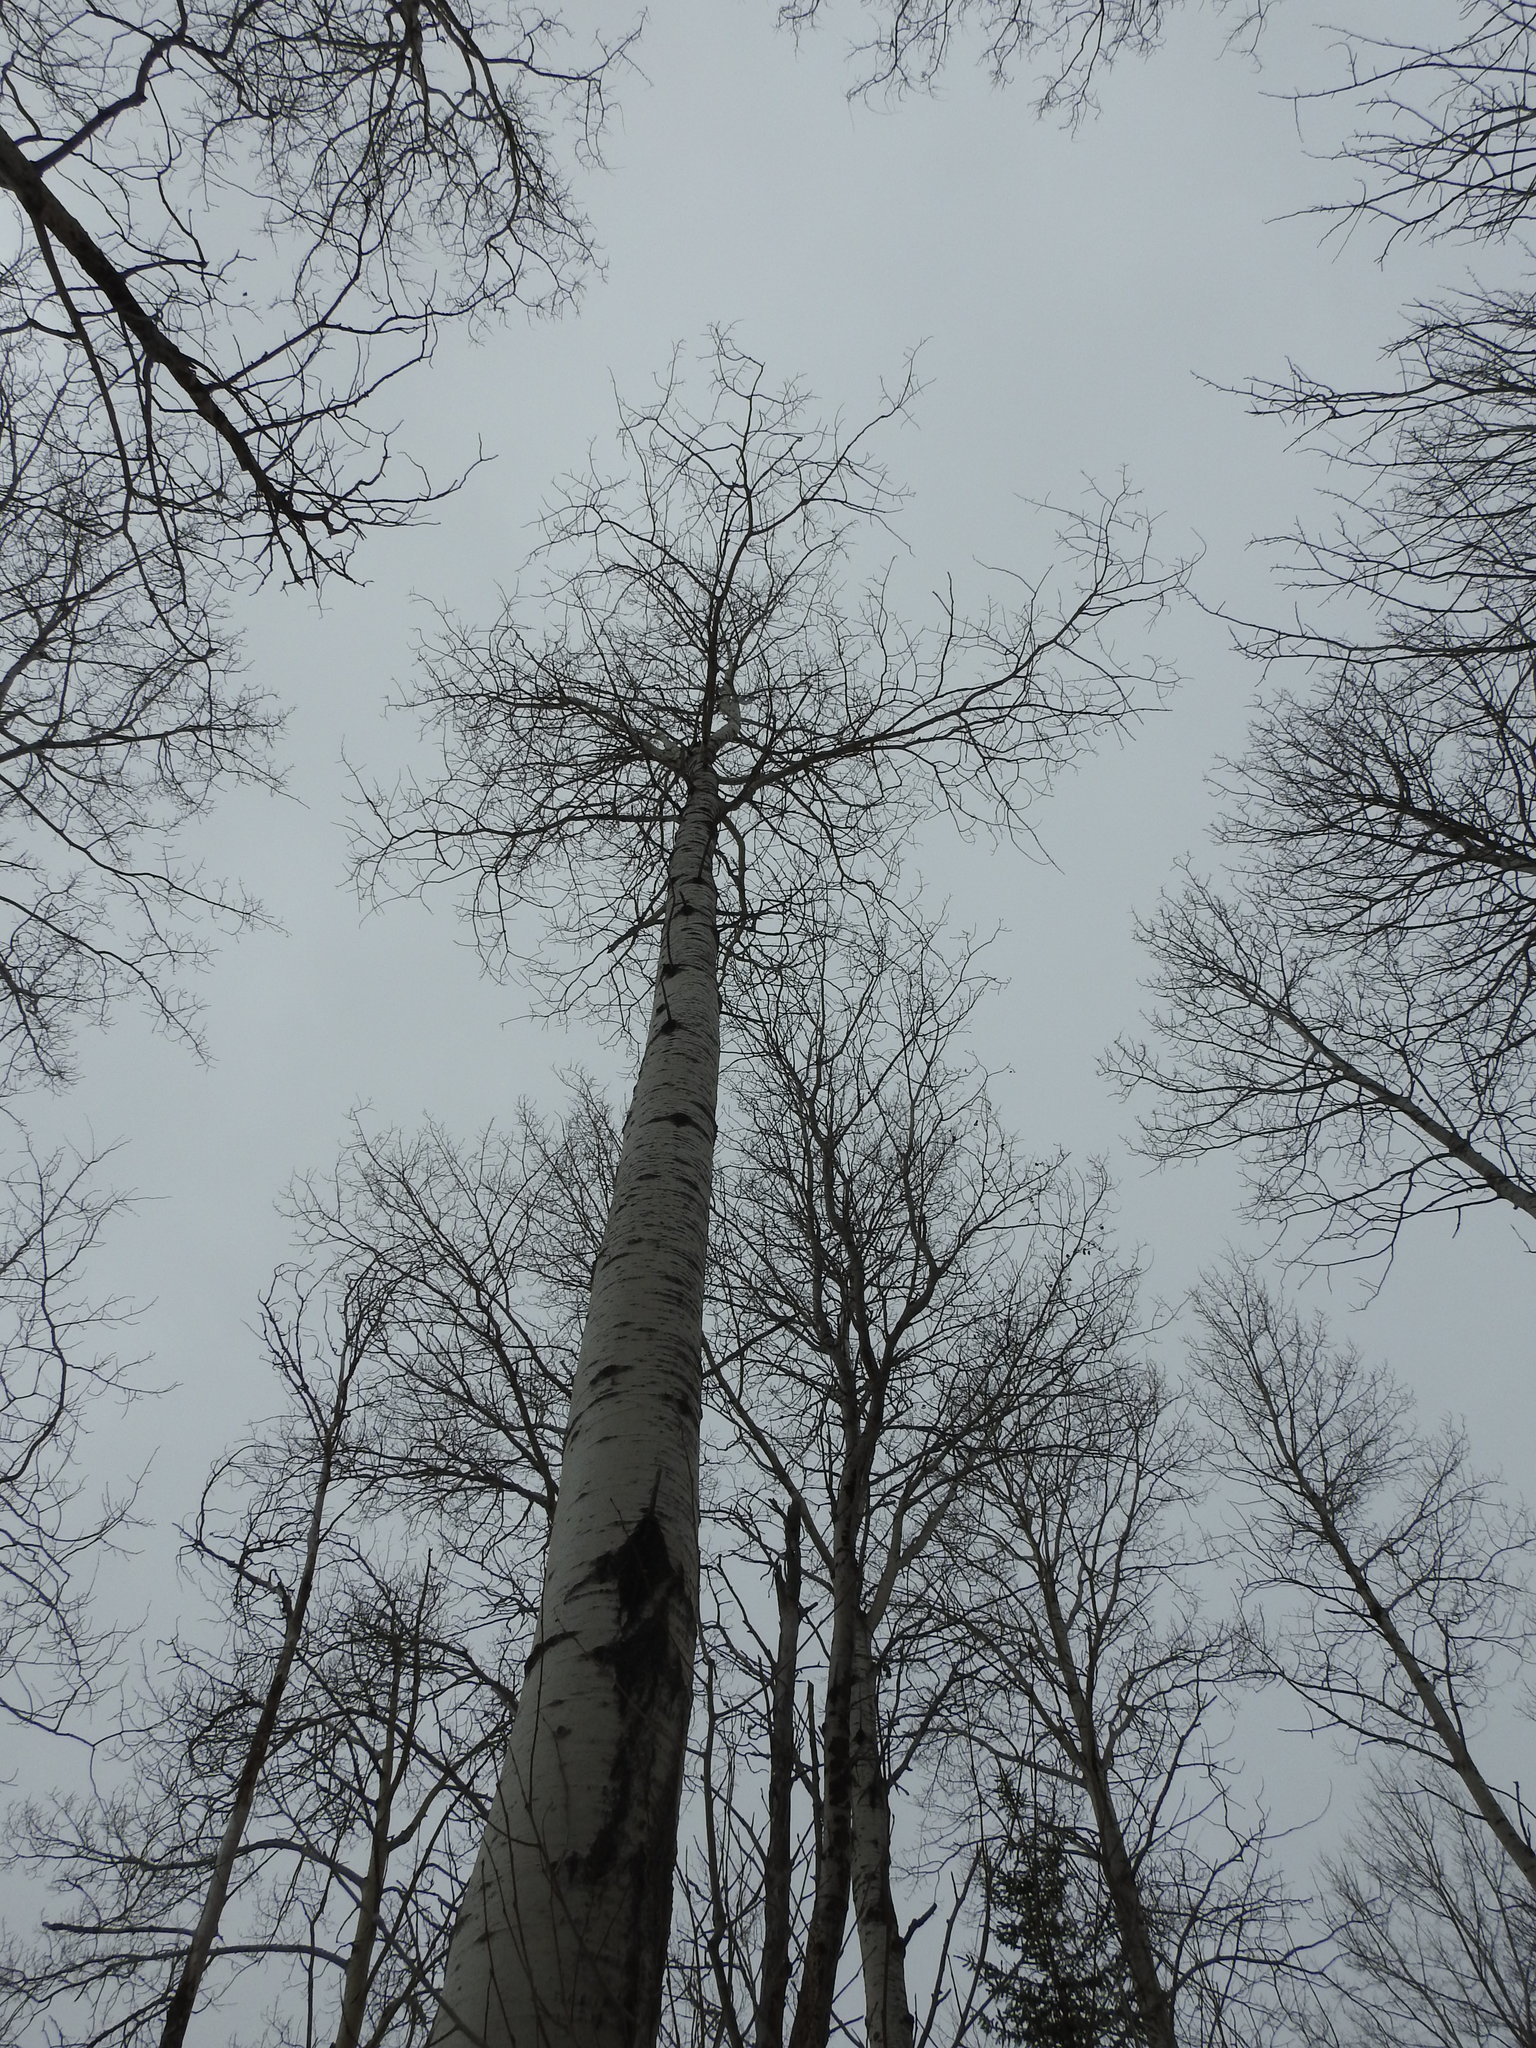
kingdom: Plantae
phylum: Tracheophyta
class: Magnoliopsida
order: Malpighiales
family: Salicaceae
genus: Populus
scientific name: Populus tremuloides
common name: Quaking aspen
